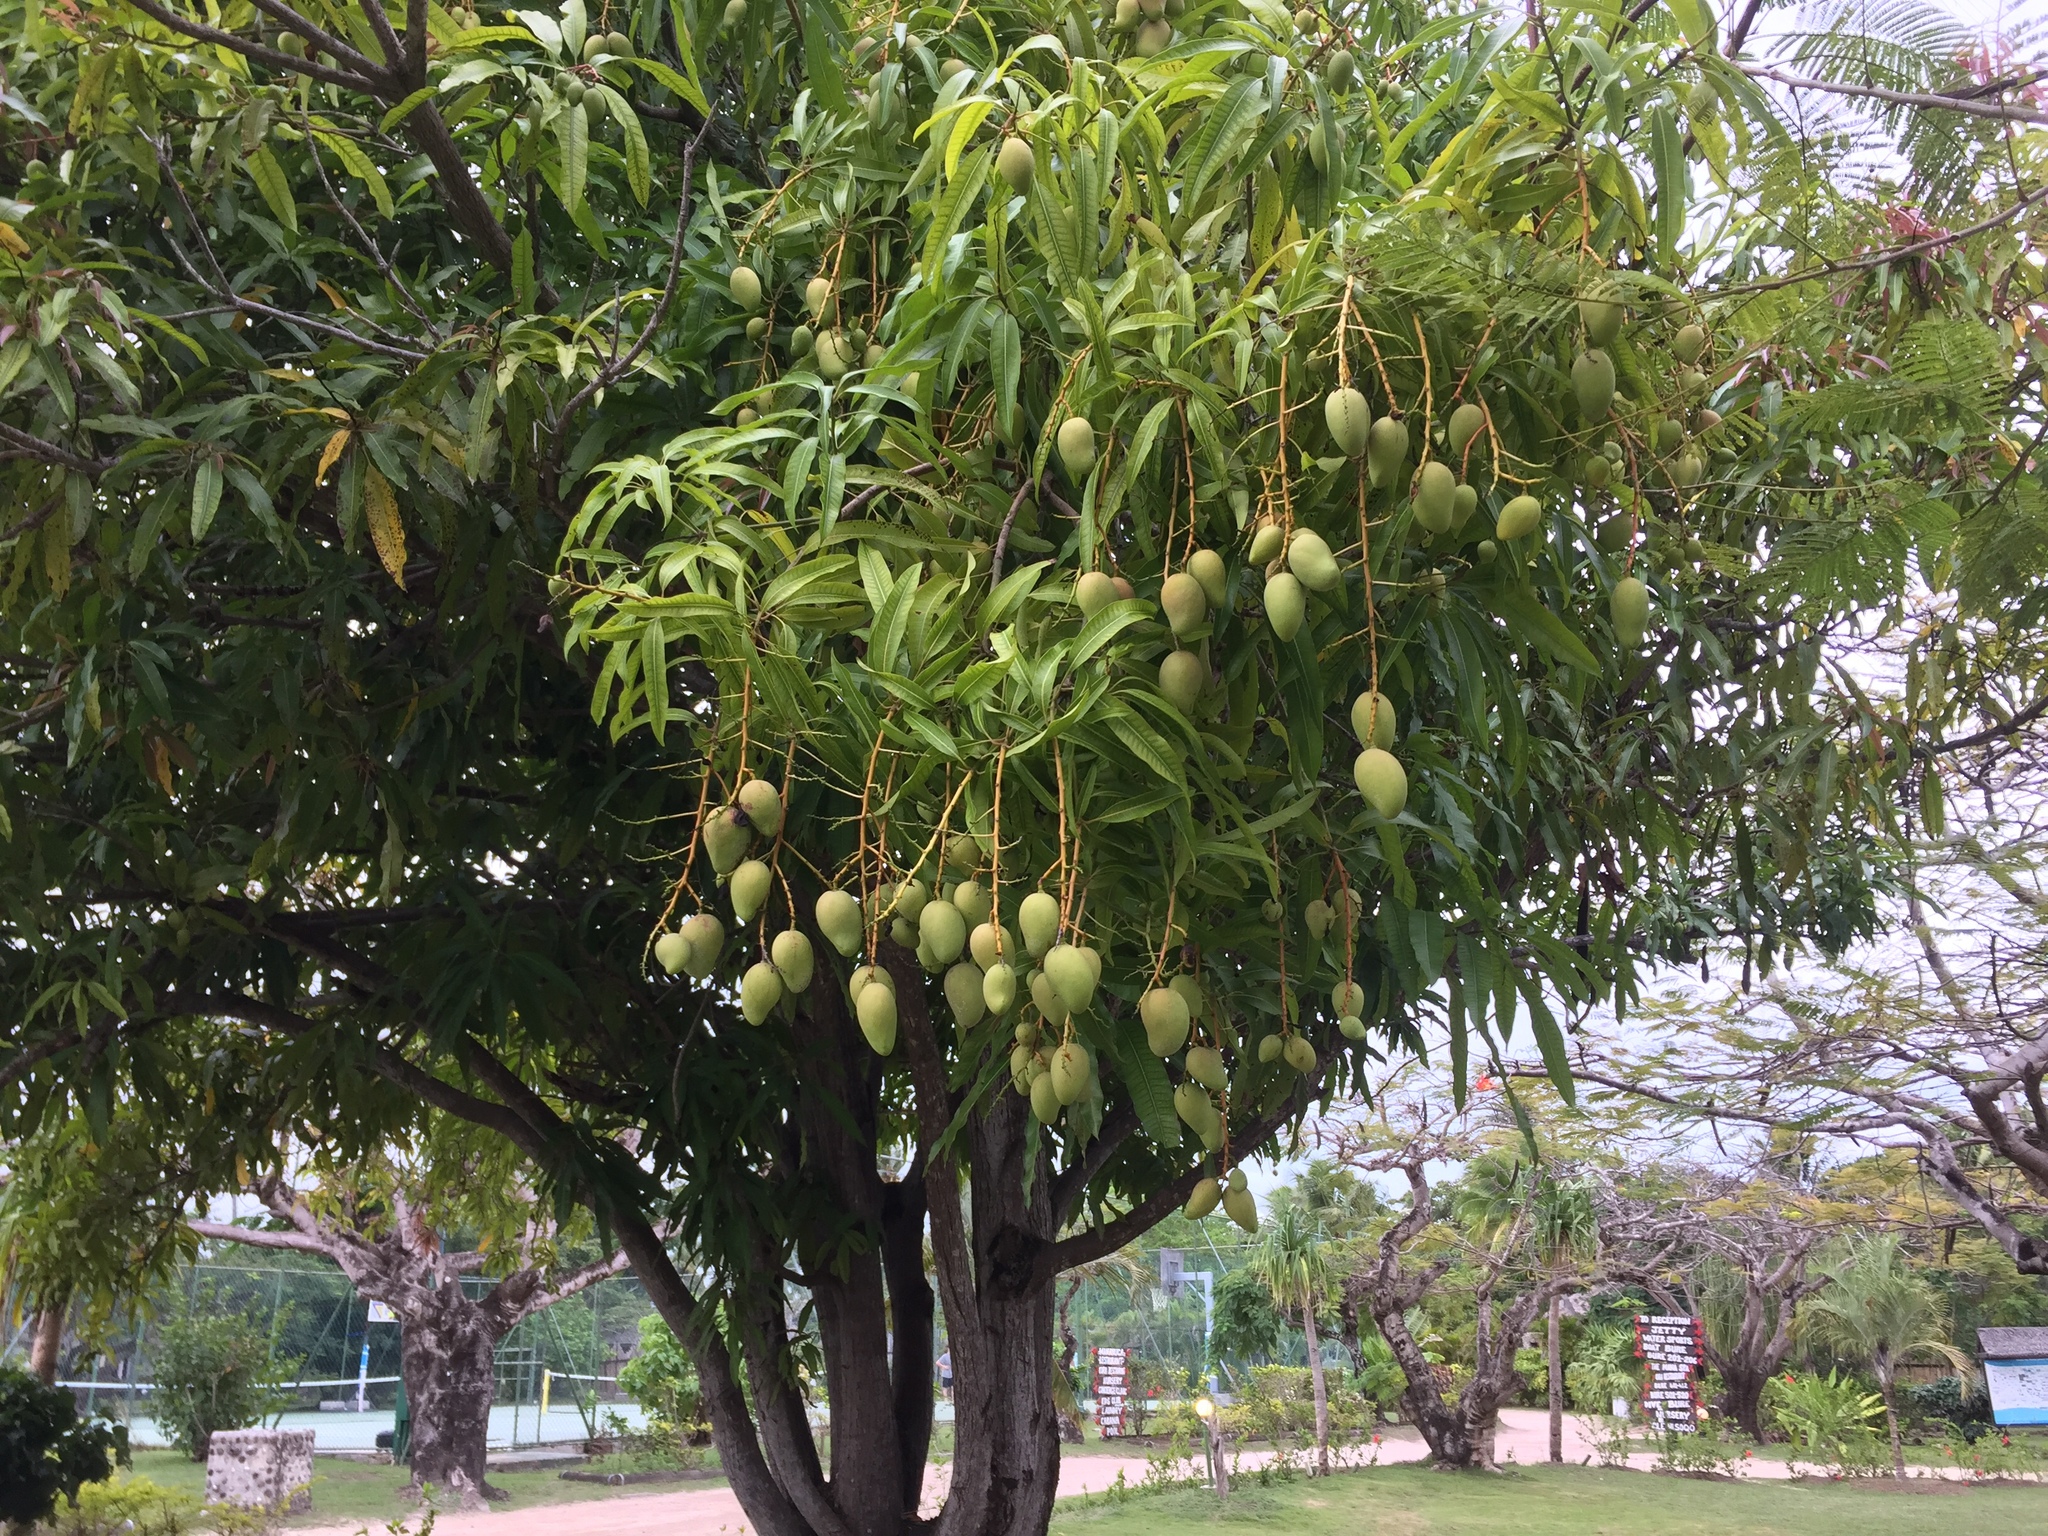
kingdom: Plantae
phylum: Tracheophyta
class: Magnoliopsida
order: Sapindales
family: Anacardiaceae
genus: Mangifera
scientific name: Mangifera indica
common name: Mango
